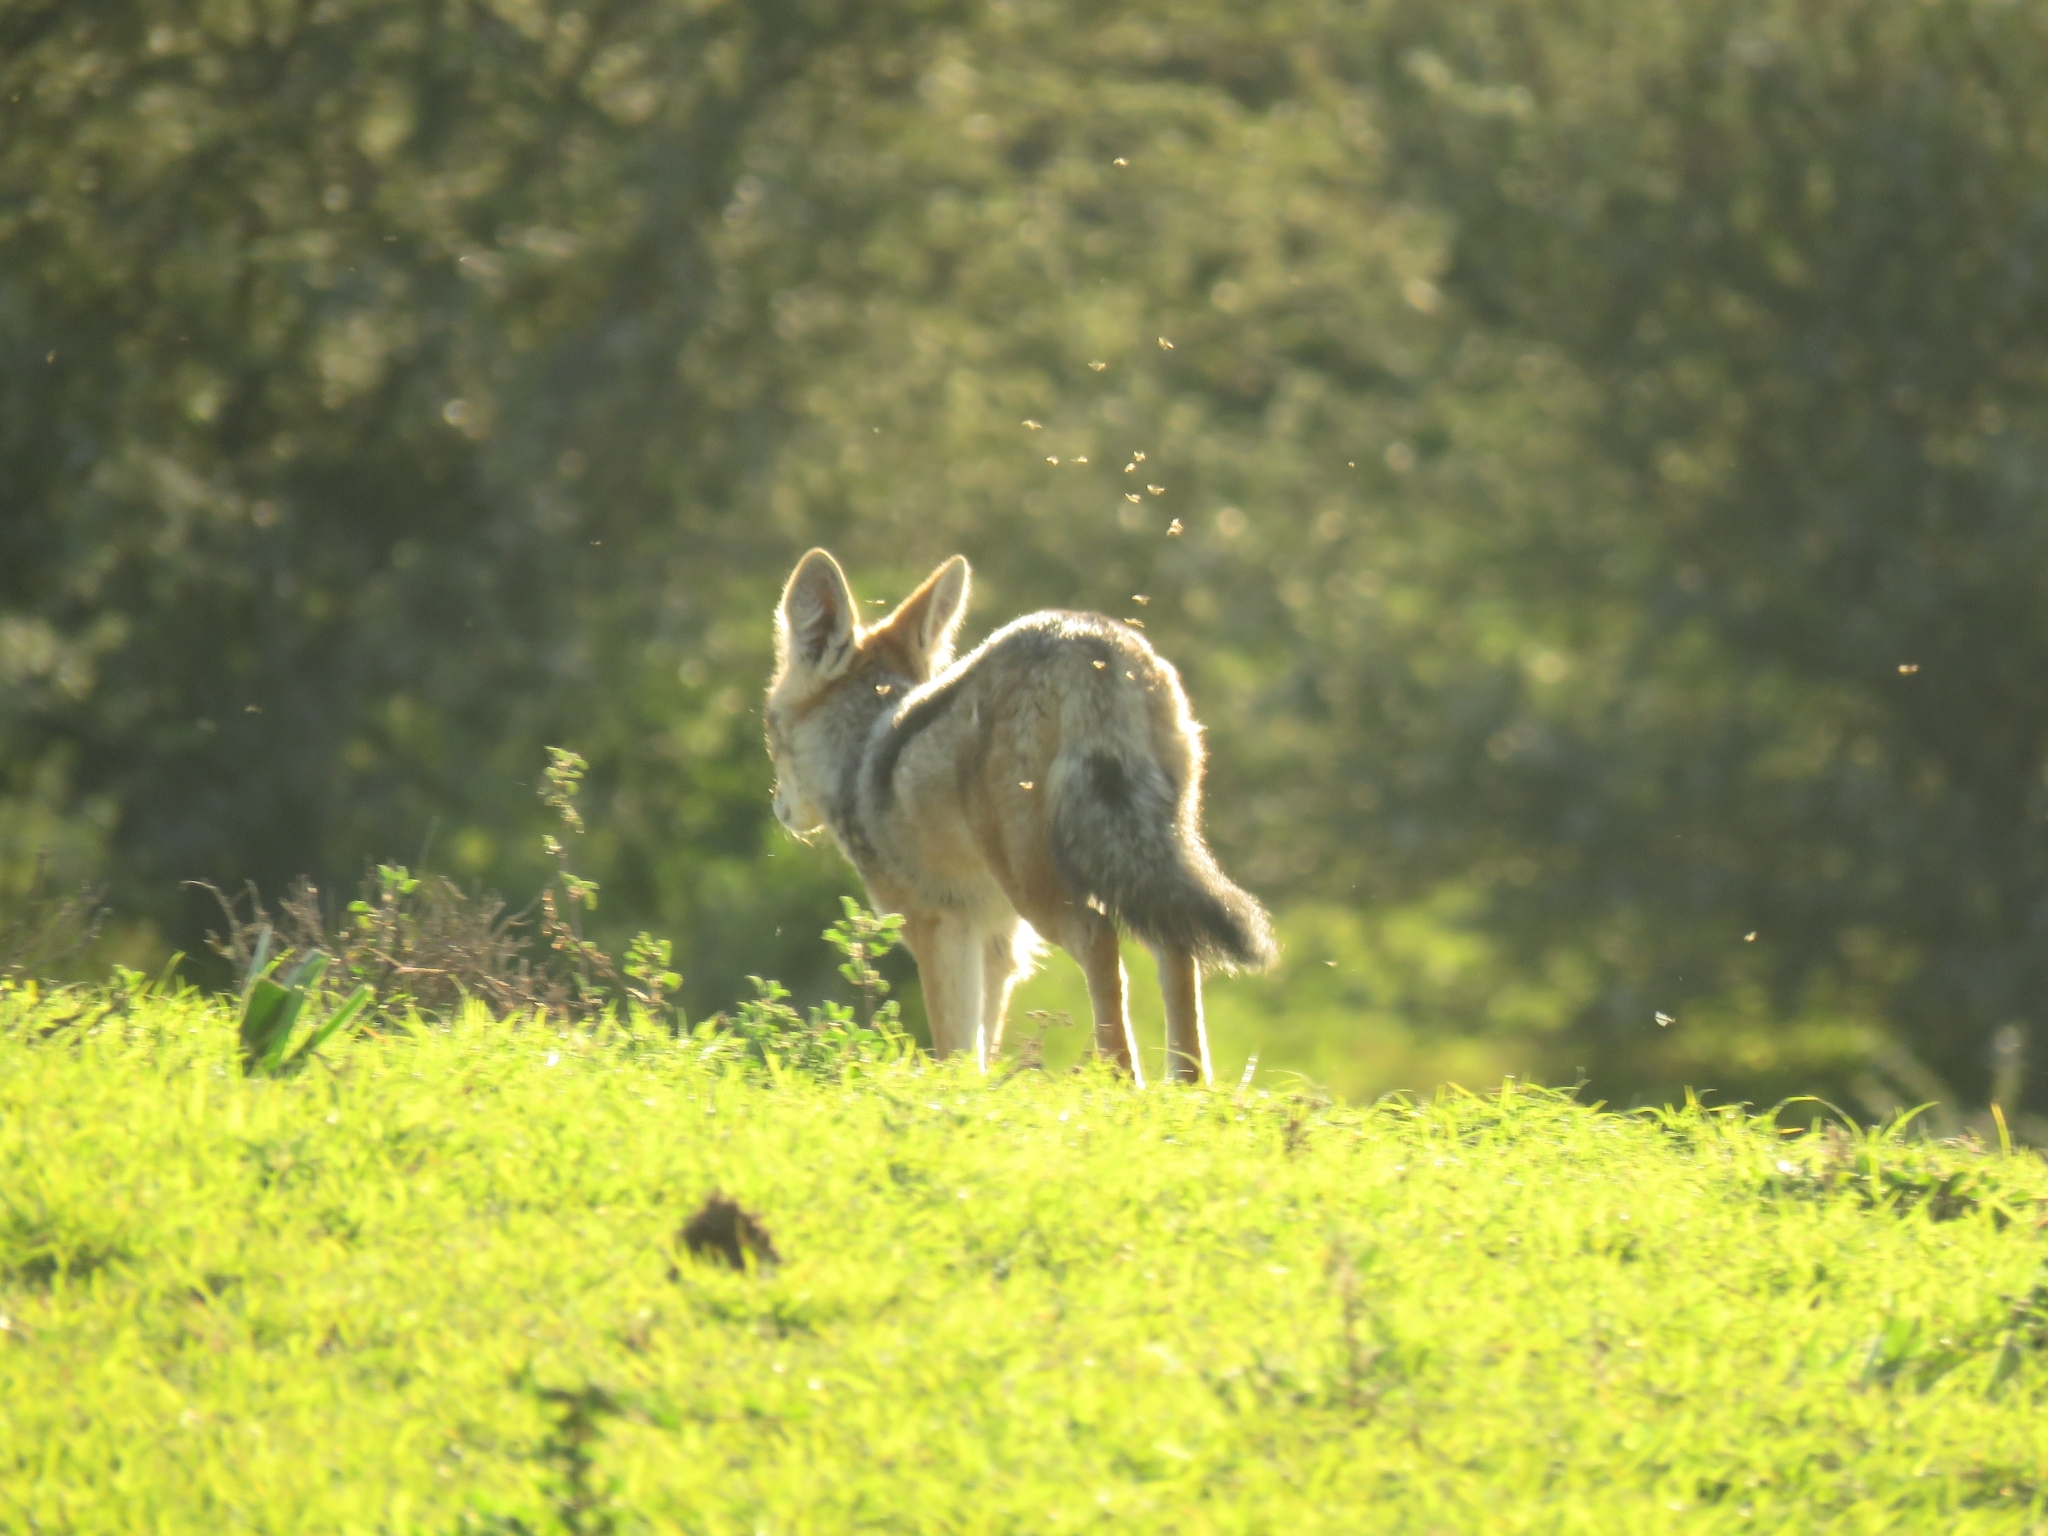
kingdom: Animalia
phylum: Chordata
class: Mammalia
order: Carnivora
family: Canidae
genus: Lupulella
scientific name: Lupulella
